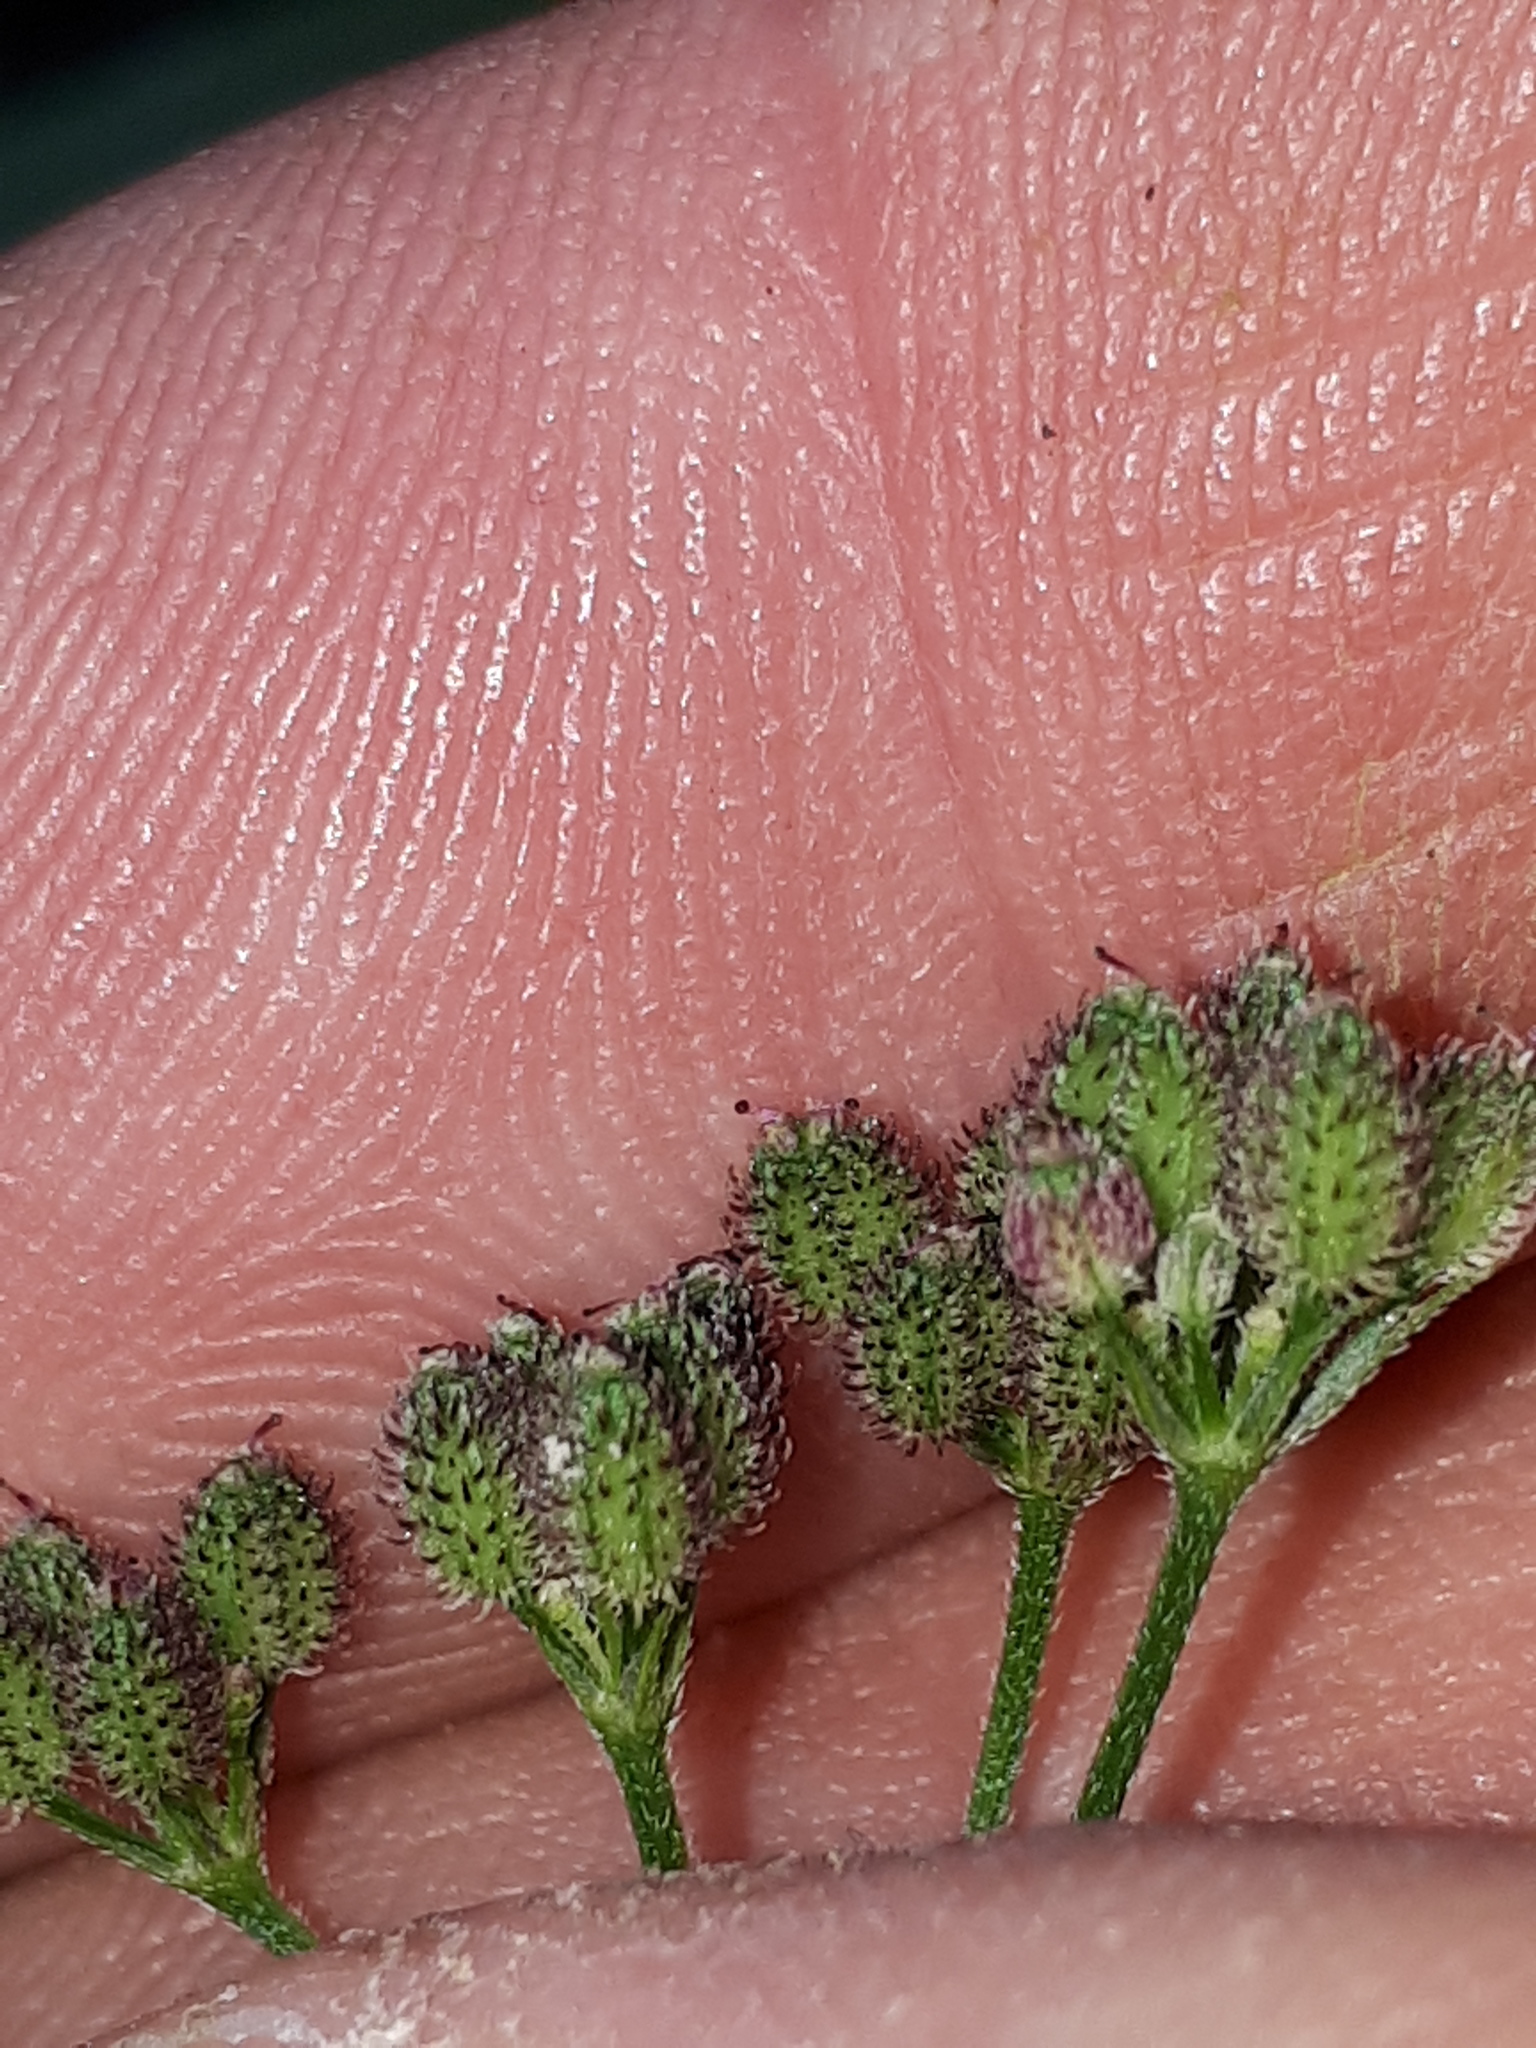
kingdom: Plantae
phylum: Tracheophyta
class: Magnoliopsida
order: Apiales
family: Apiaceae
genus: Torilis
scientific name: Torilis japonica
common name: Upright hedge-parsley
